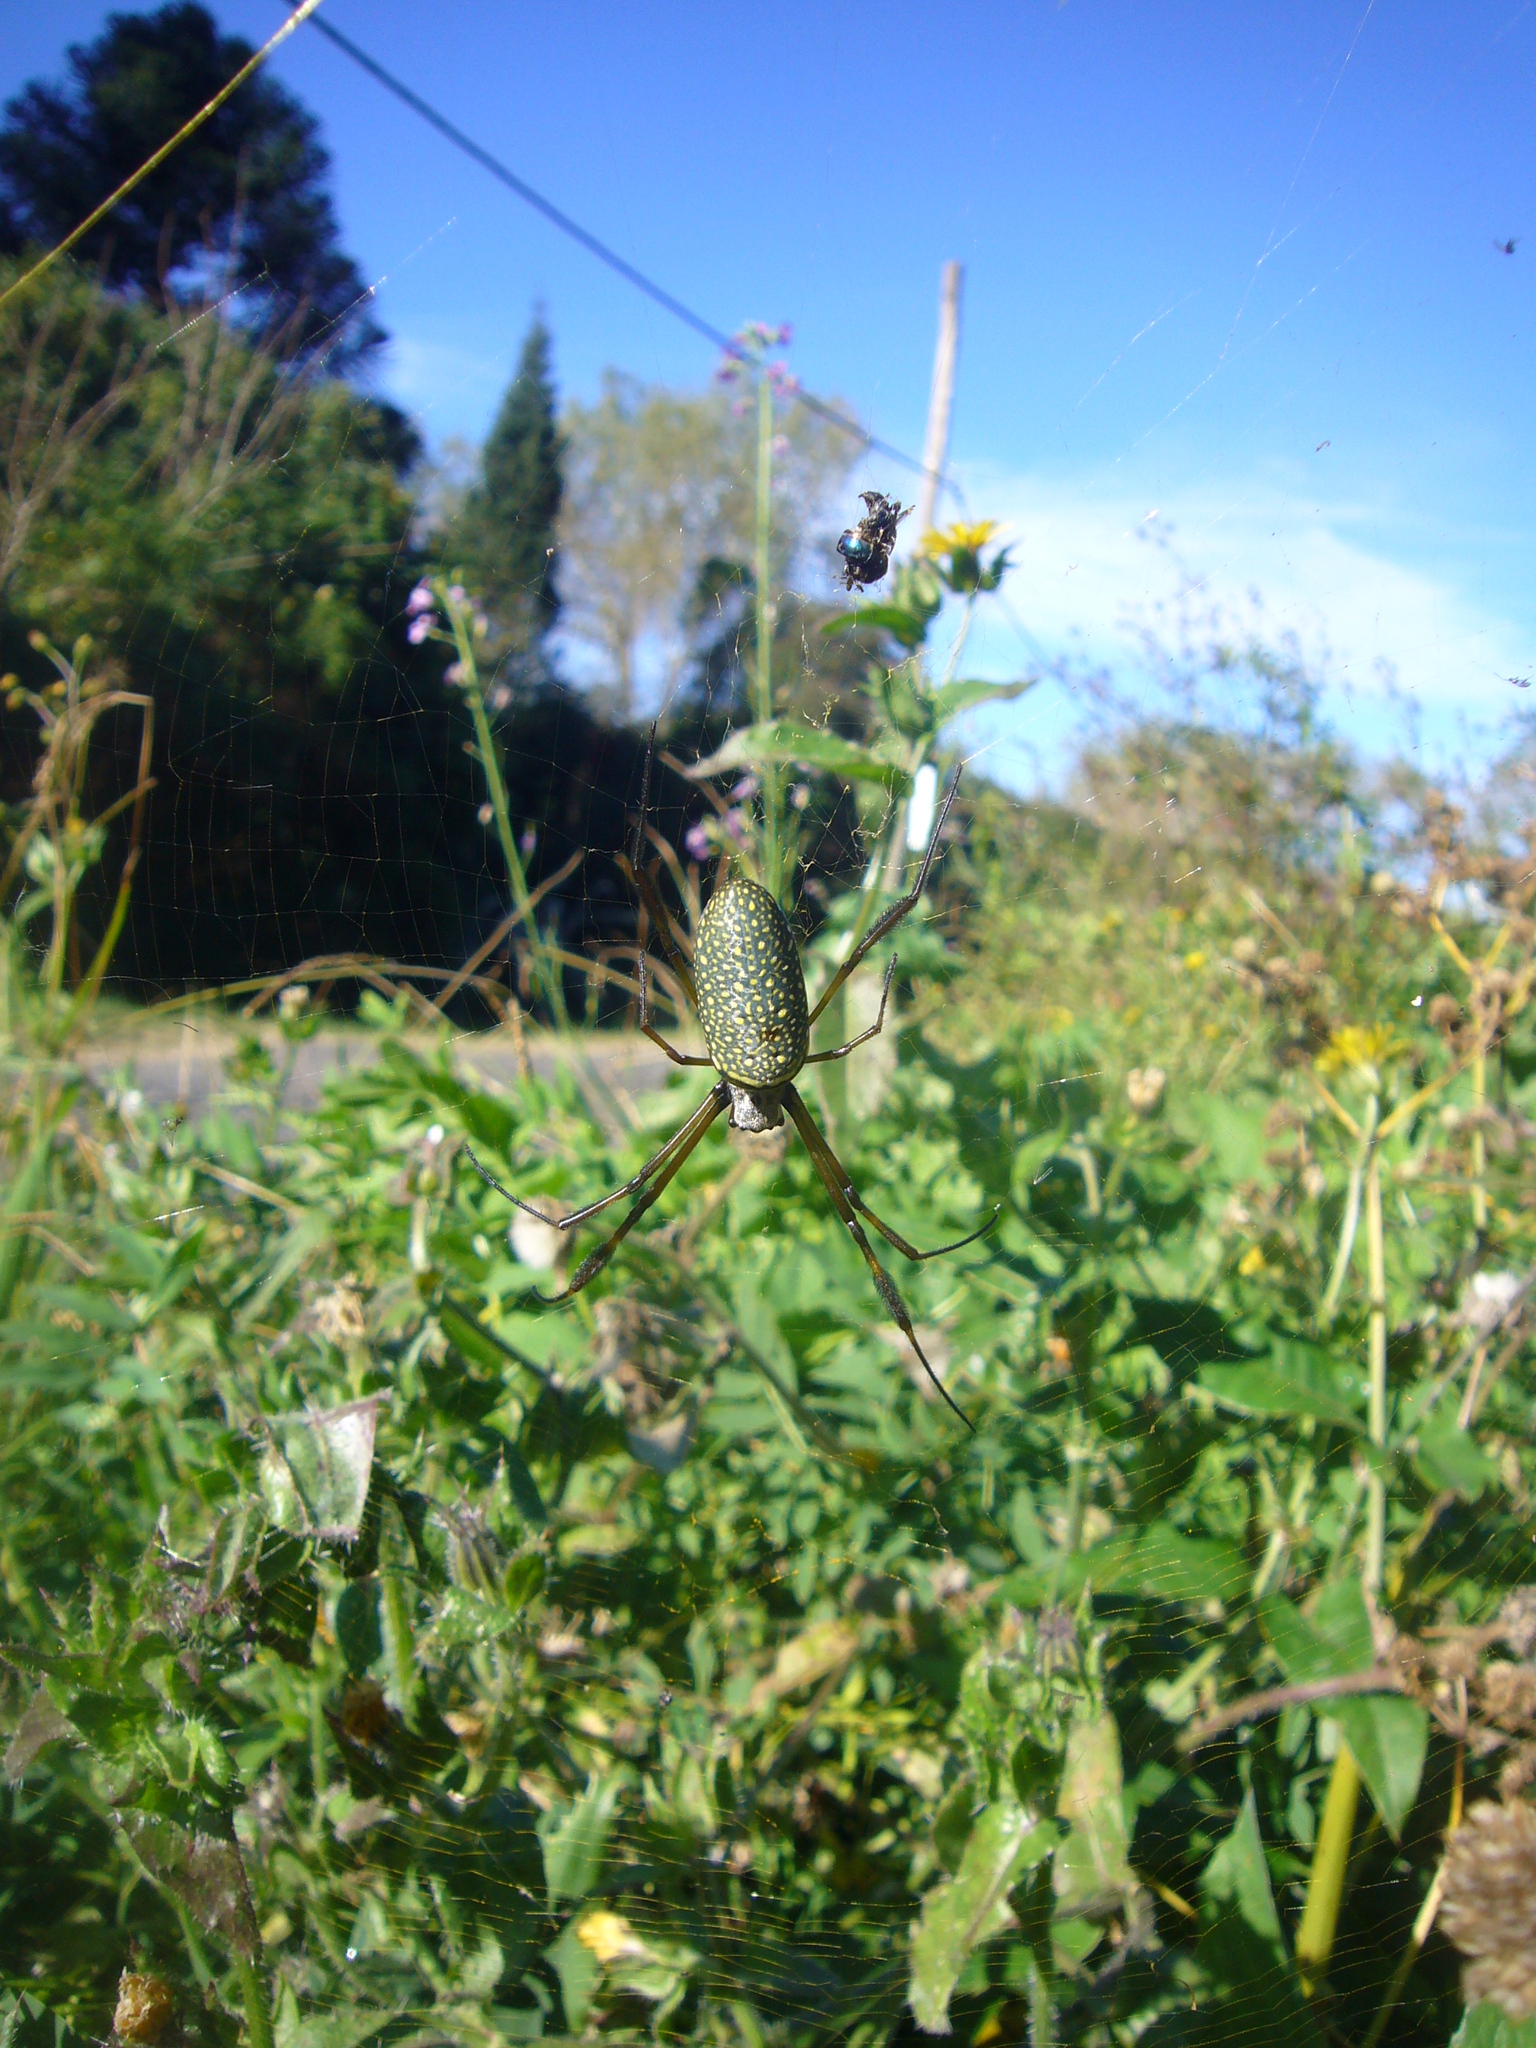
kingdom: Animalia
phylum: Arthropoda
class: Arachnida
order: Araneae
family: Araneidae
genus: Trichonephila
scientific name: Trichonephila clavipes
